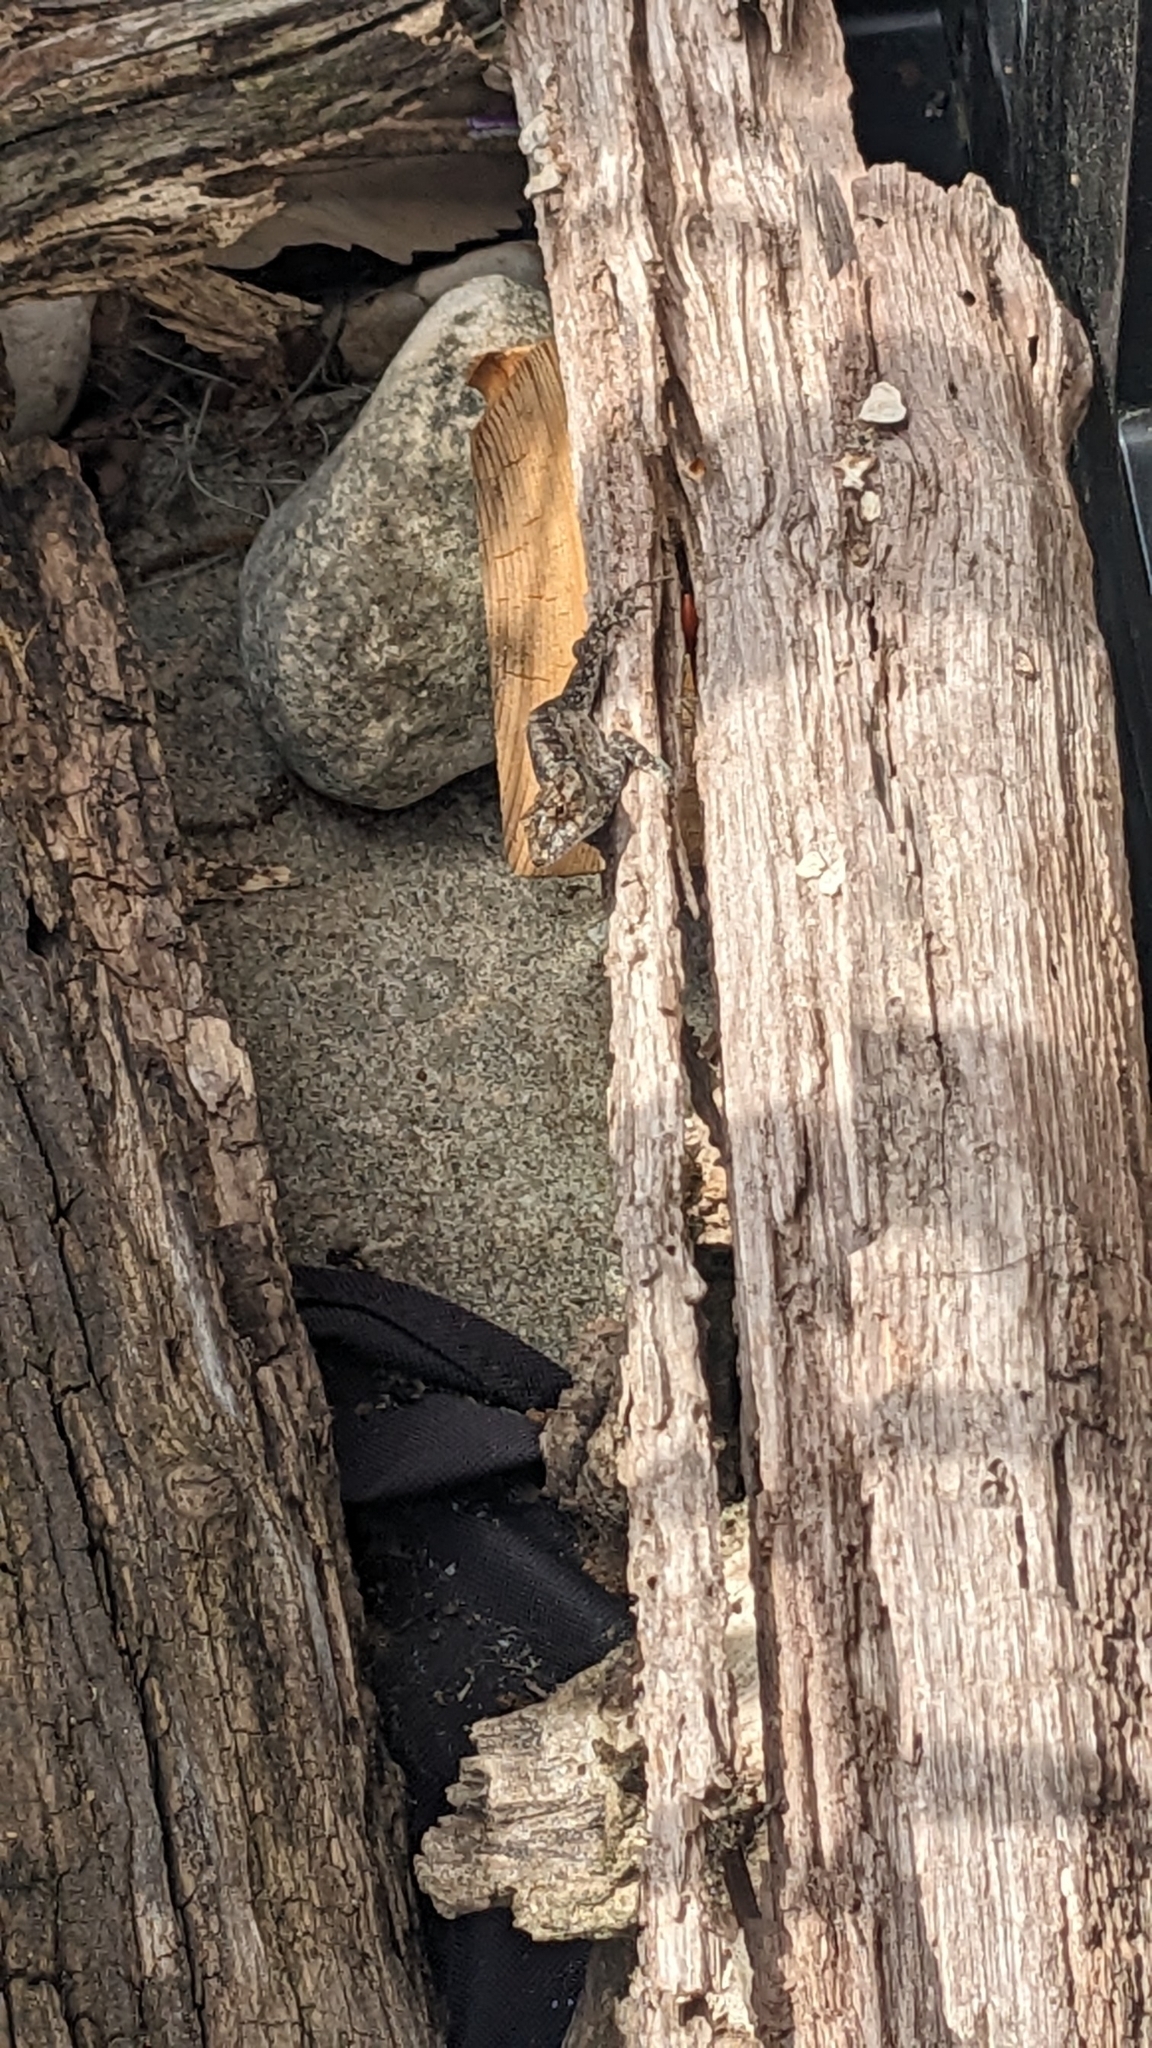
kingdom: Animalia
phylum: Chordata
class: Squamata
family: Dactyloidae
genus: Anolis
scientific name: Anolis sagrei
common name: Brown anole
